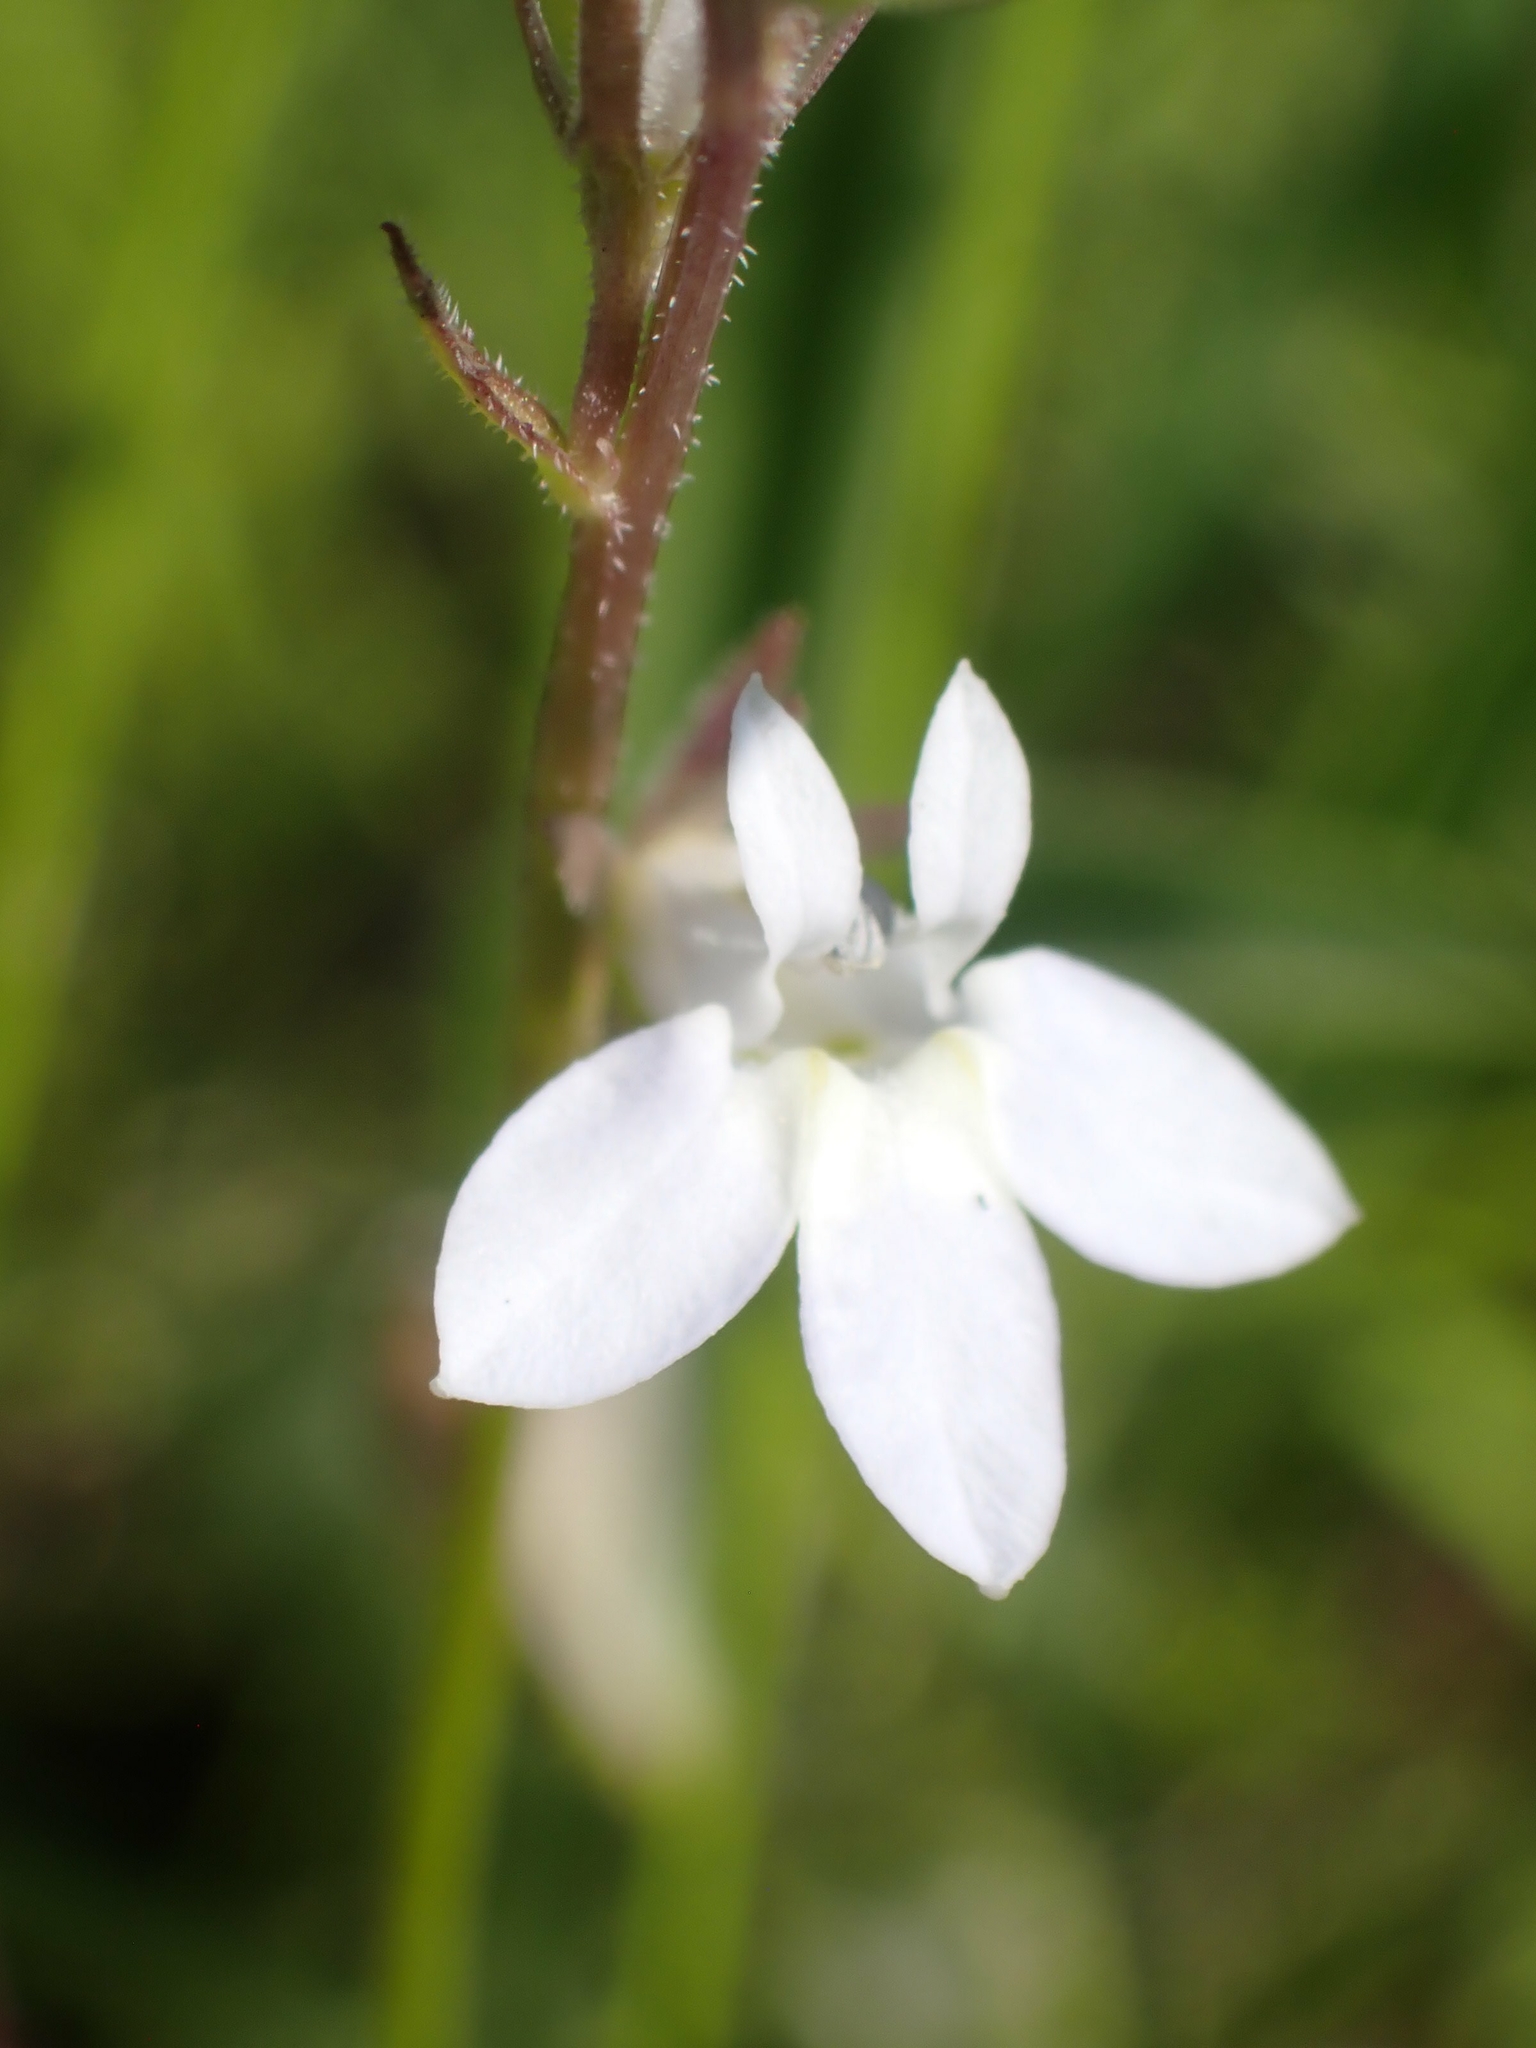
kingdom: Plantae
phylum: Tracheophyta
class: Magnoliopsida
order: Asterales
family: Campanulaceae
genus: Lobelia
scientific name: Lobelia spicata
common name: Pale-spike lobelia
